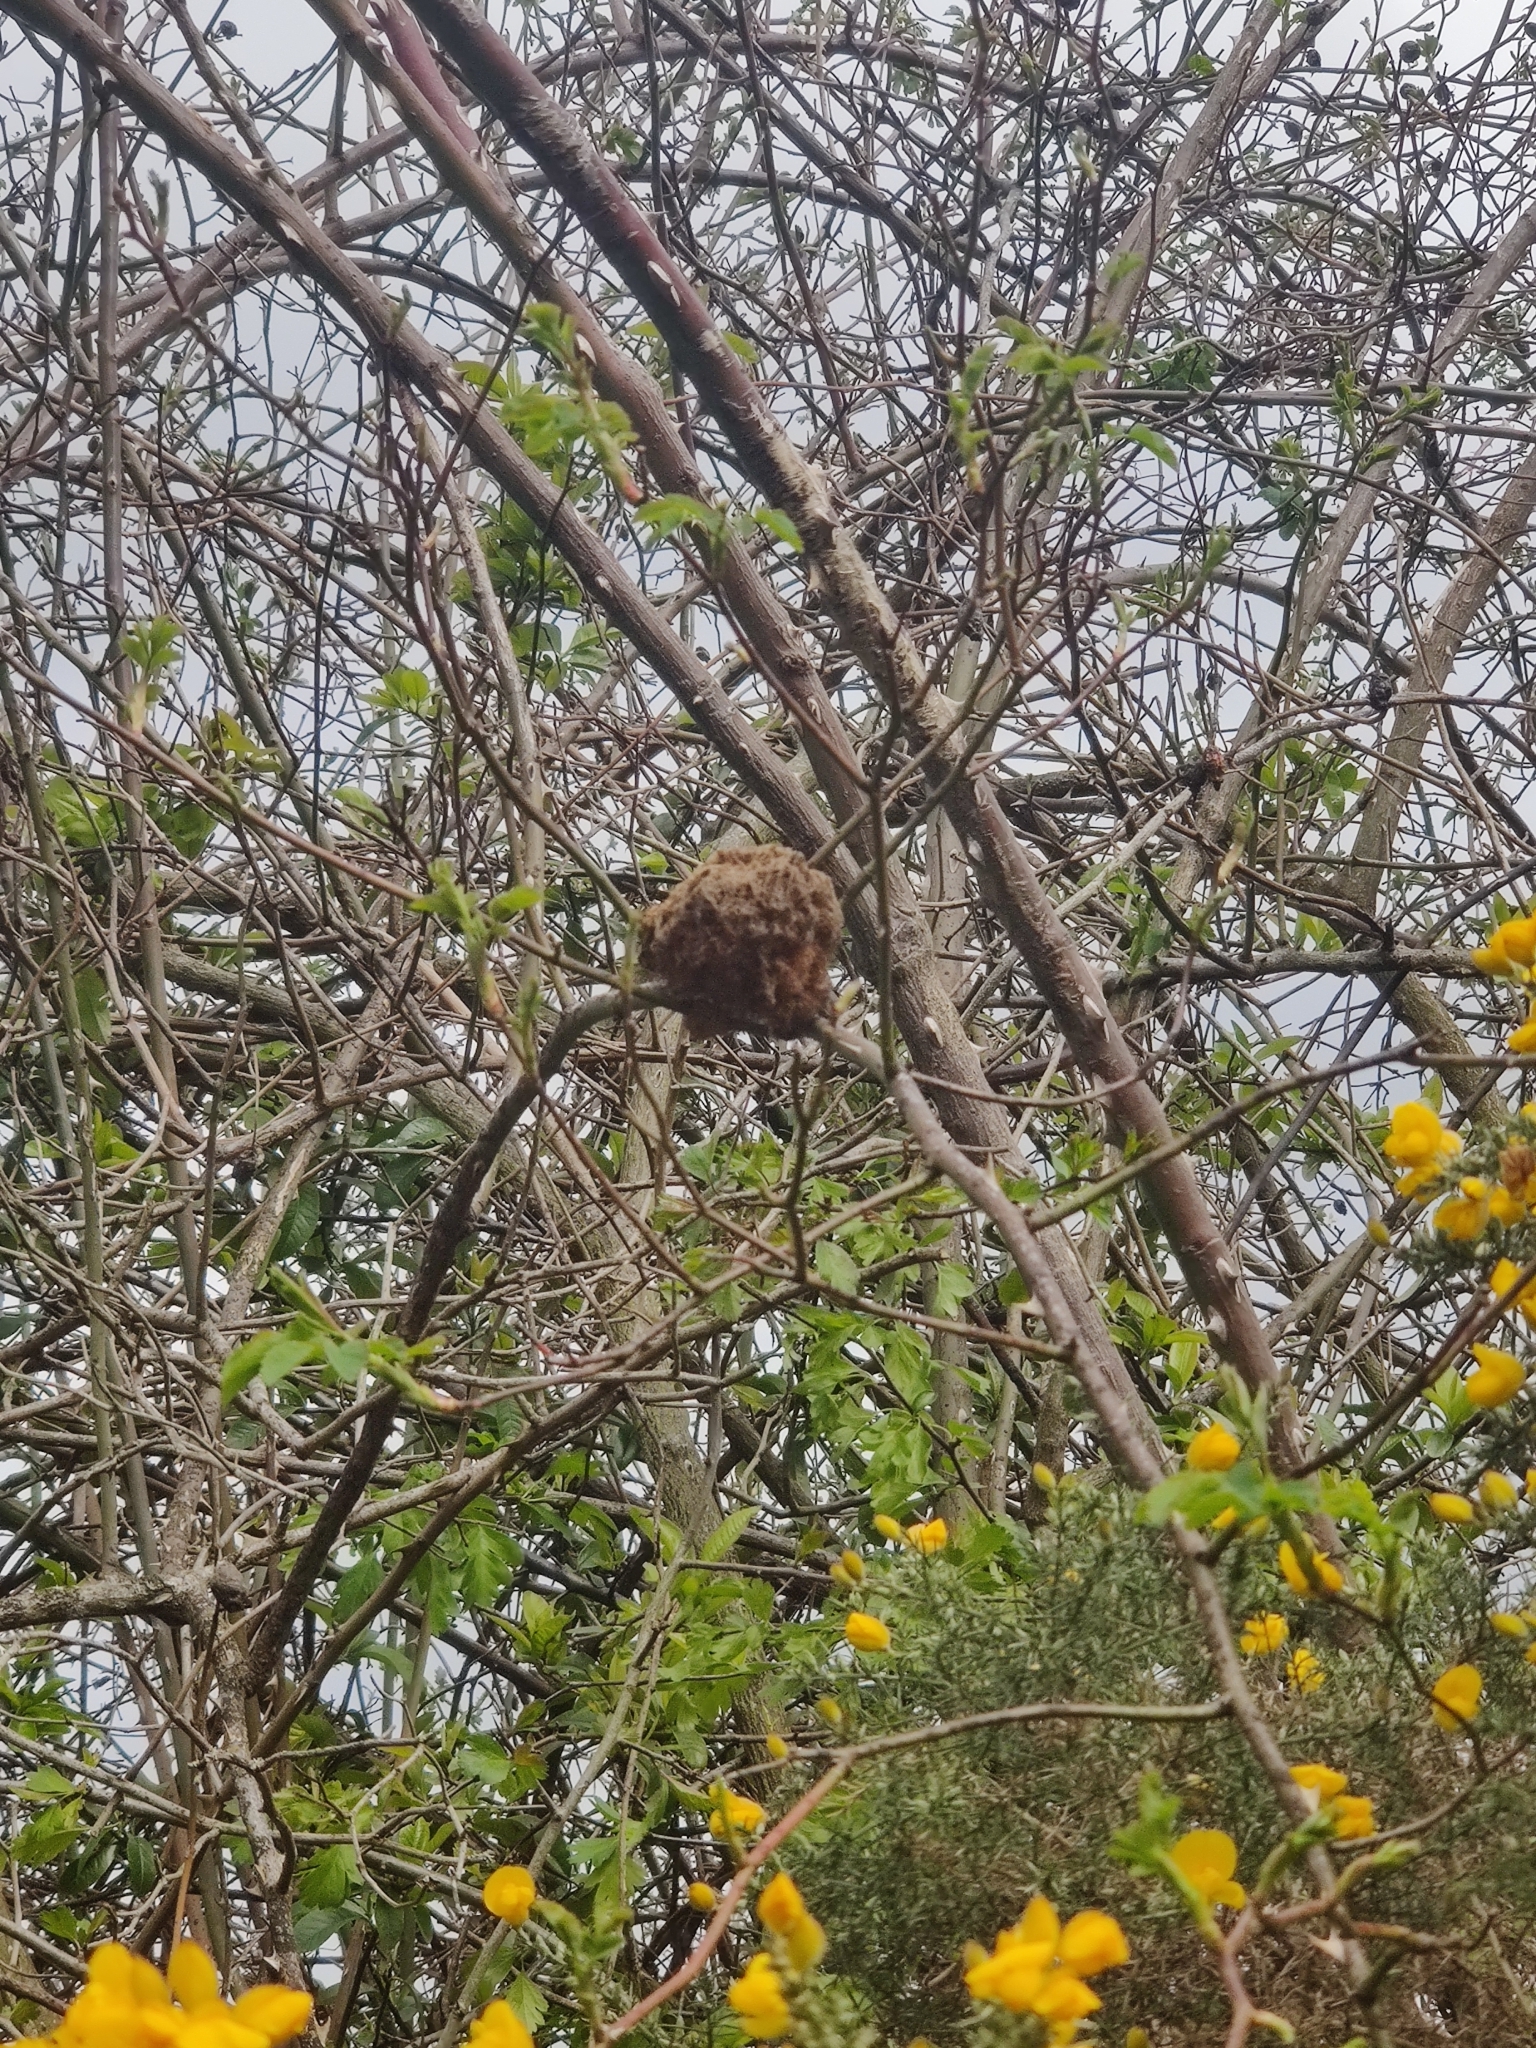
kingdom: Animalia
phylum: Arthropoda
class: Insecta
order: Hymenoptera
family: Cynipidae
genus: Diplolepis
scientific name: Diplolepis rosae
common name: Bedeguar gall
